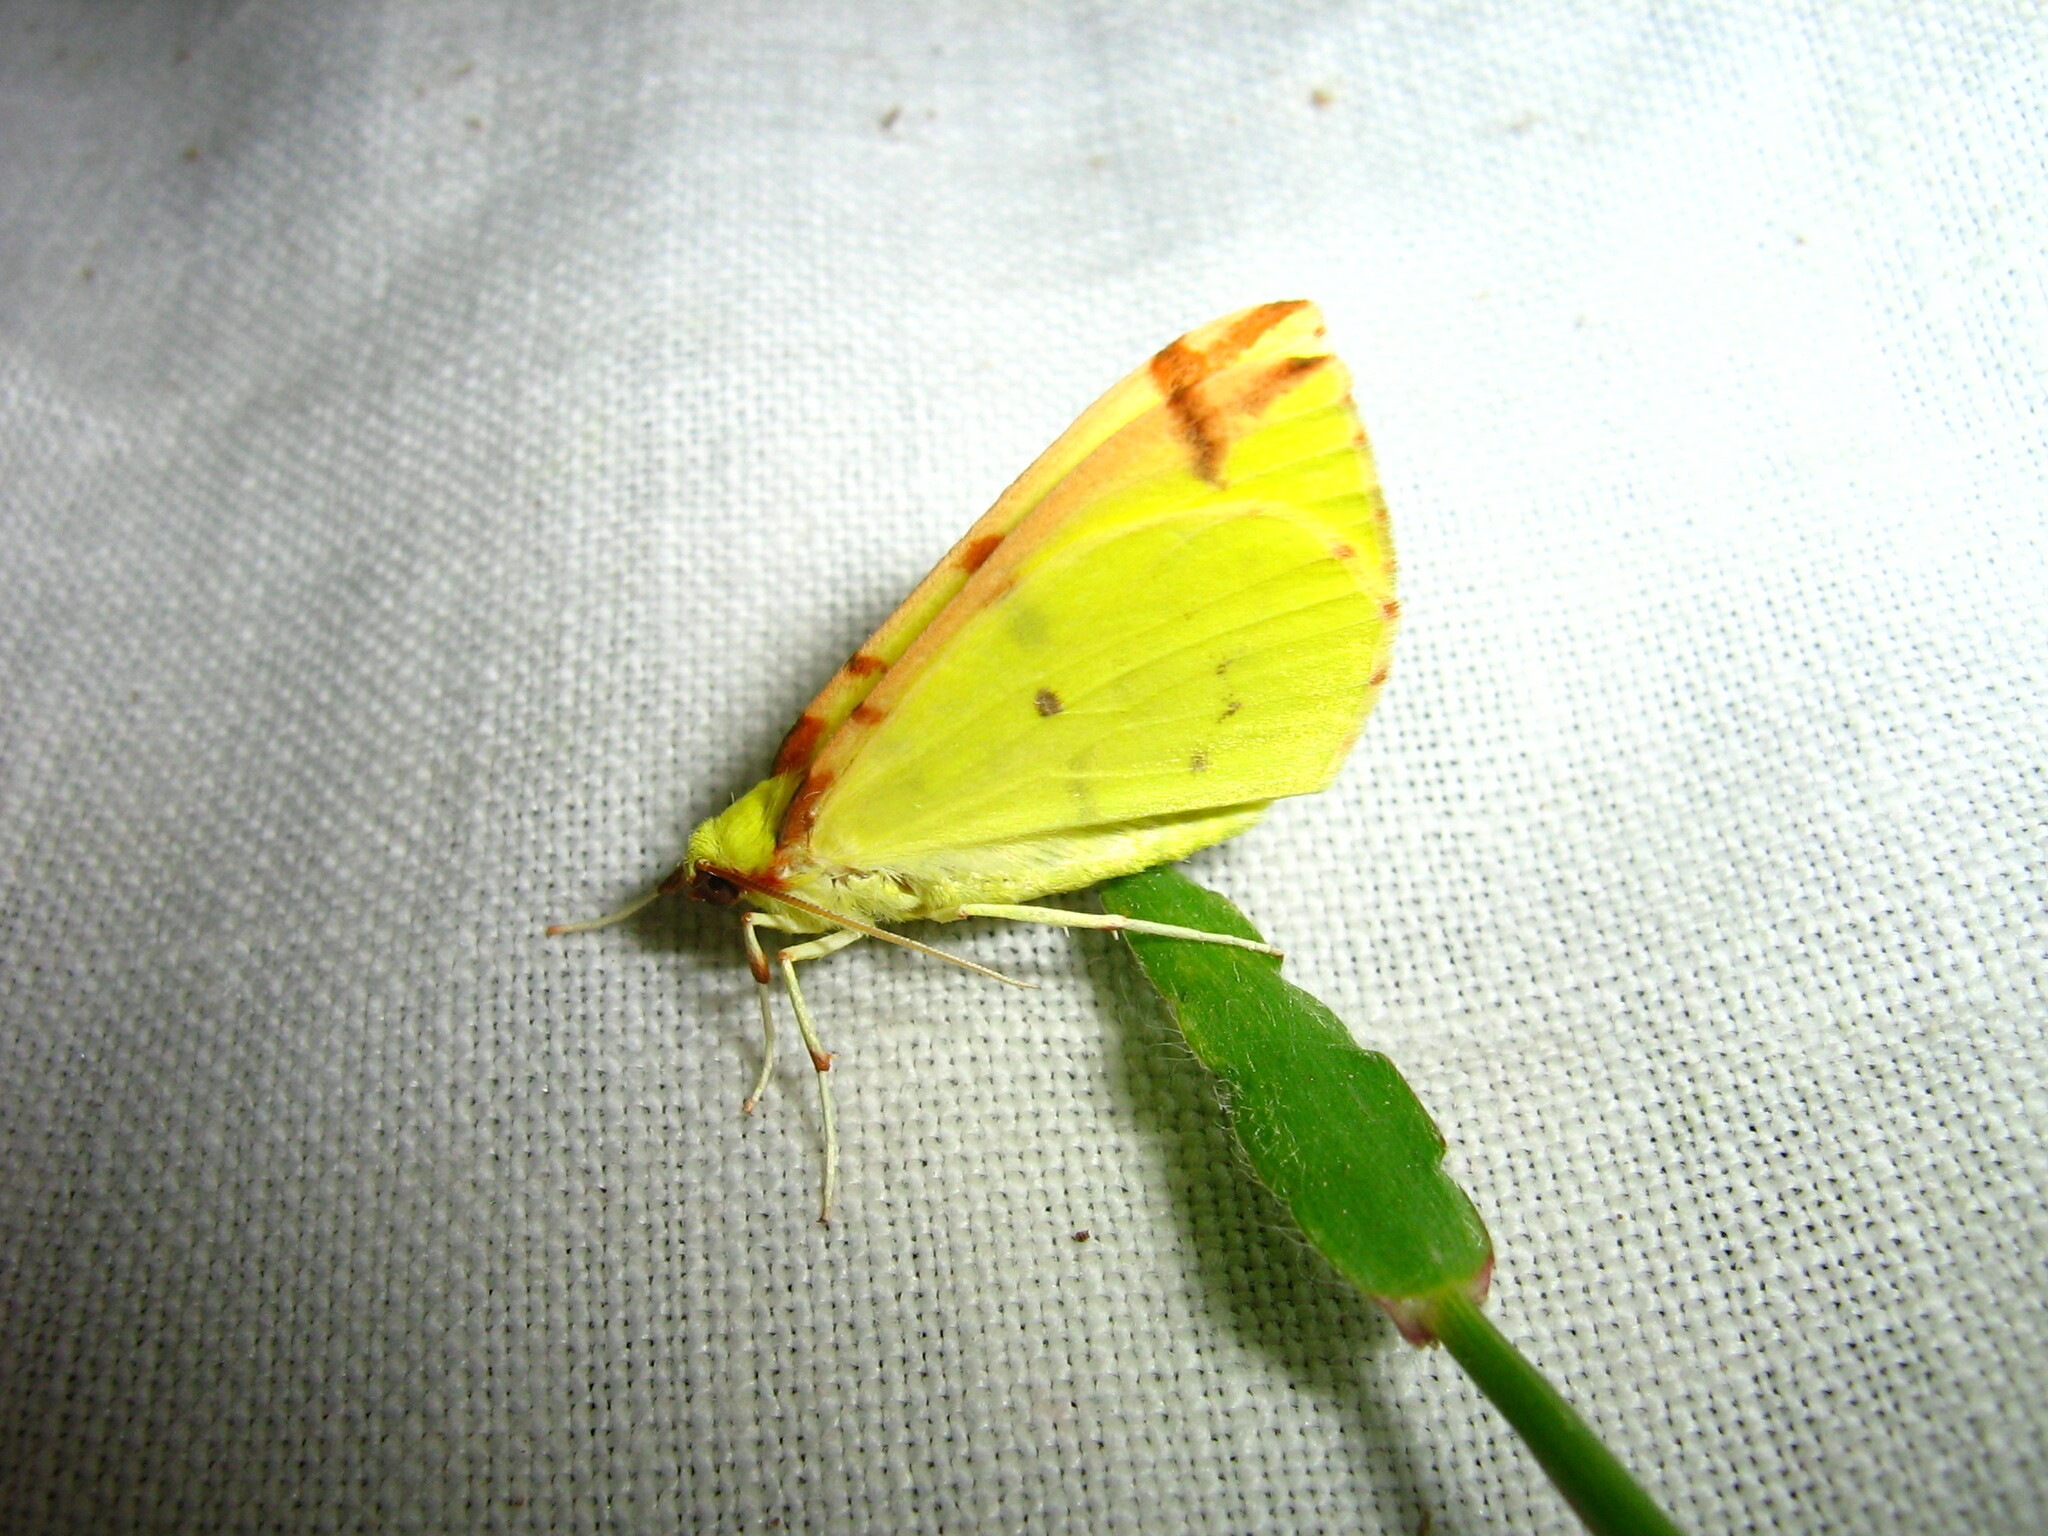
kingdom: Animalia
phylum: Arthropoda
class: Insecta
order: Lepidoptera
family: Geometridae
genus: Opisthograptis
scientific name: Opisthograptis luteolata
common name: Brimstone moth
